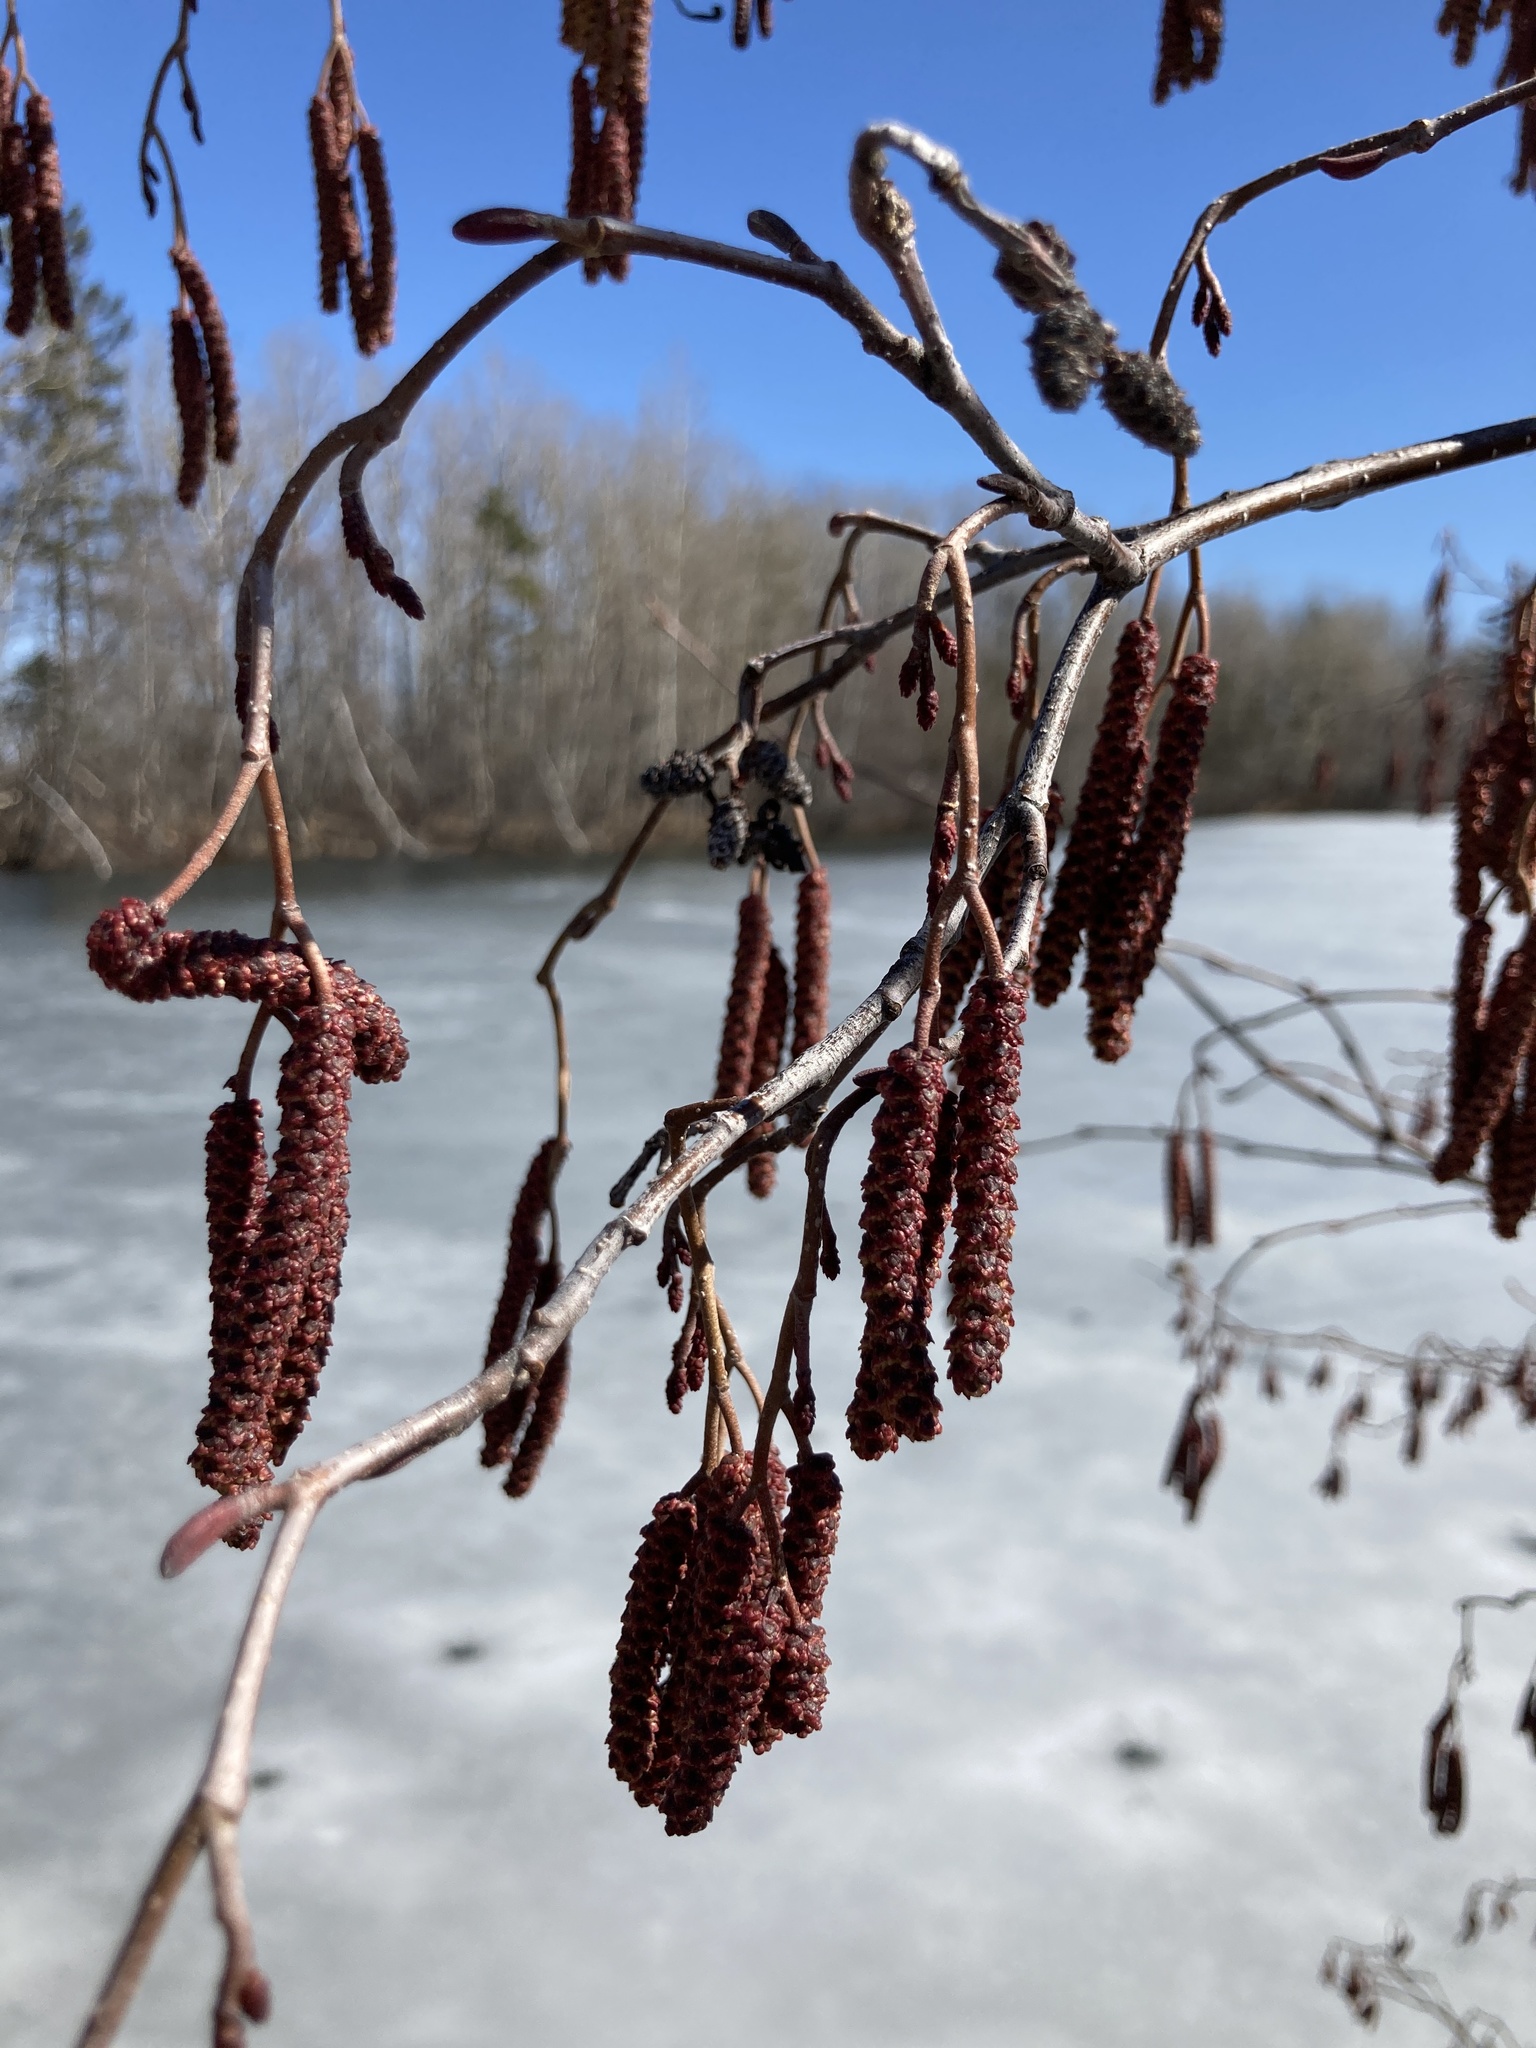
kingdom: Plantae
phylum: Tracheophyta
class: Magnoliopsida
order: Fagales
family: Betulaceae
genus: Alnus
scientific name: Alnus incana
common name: Grey alder
